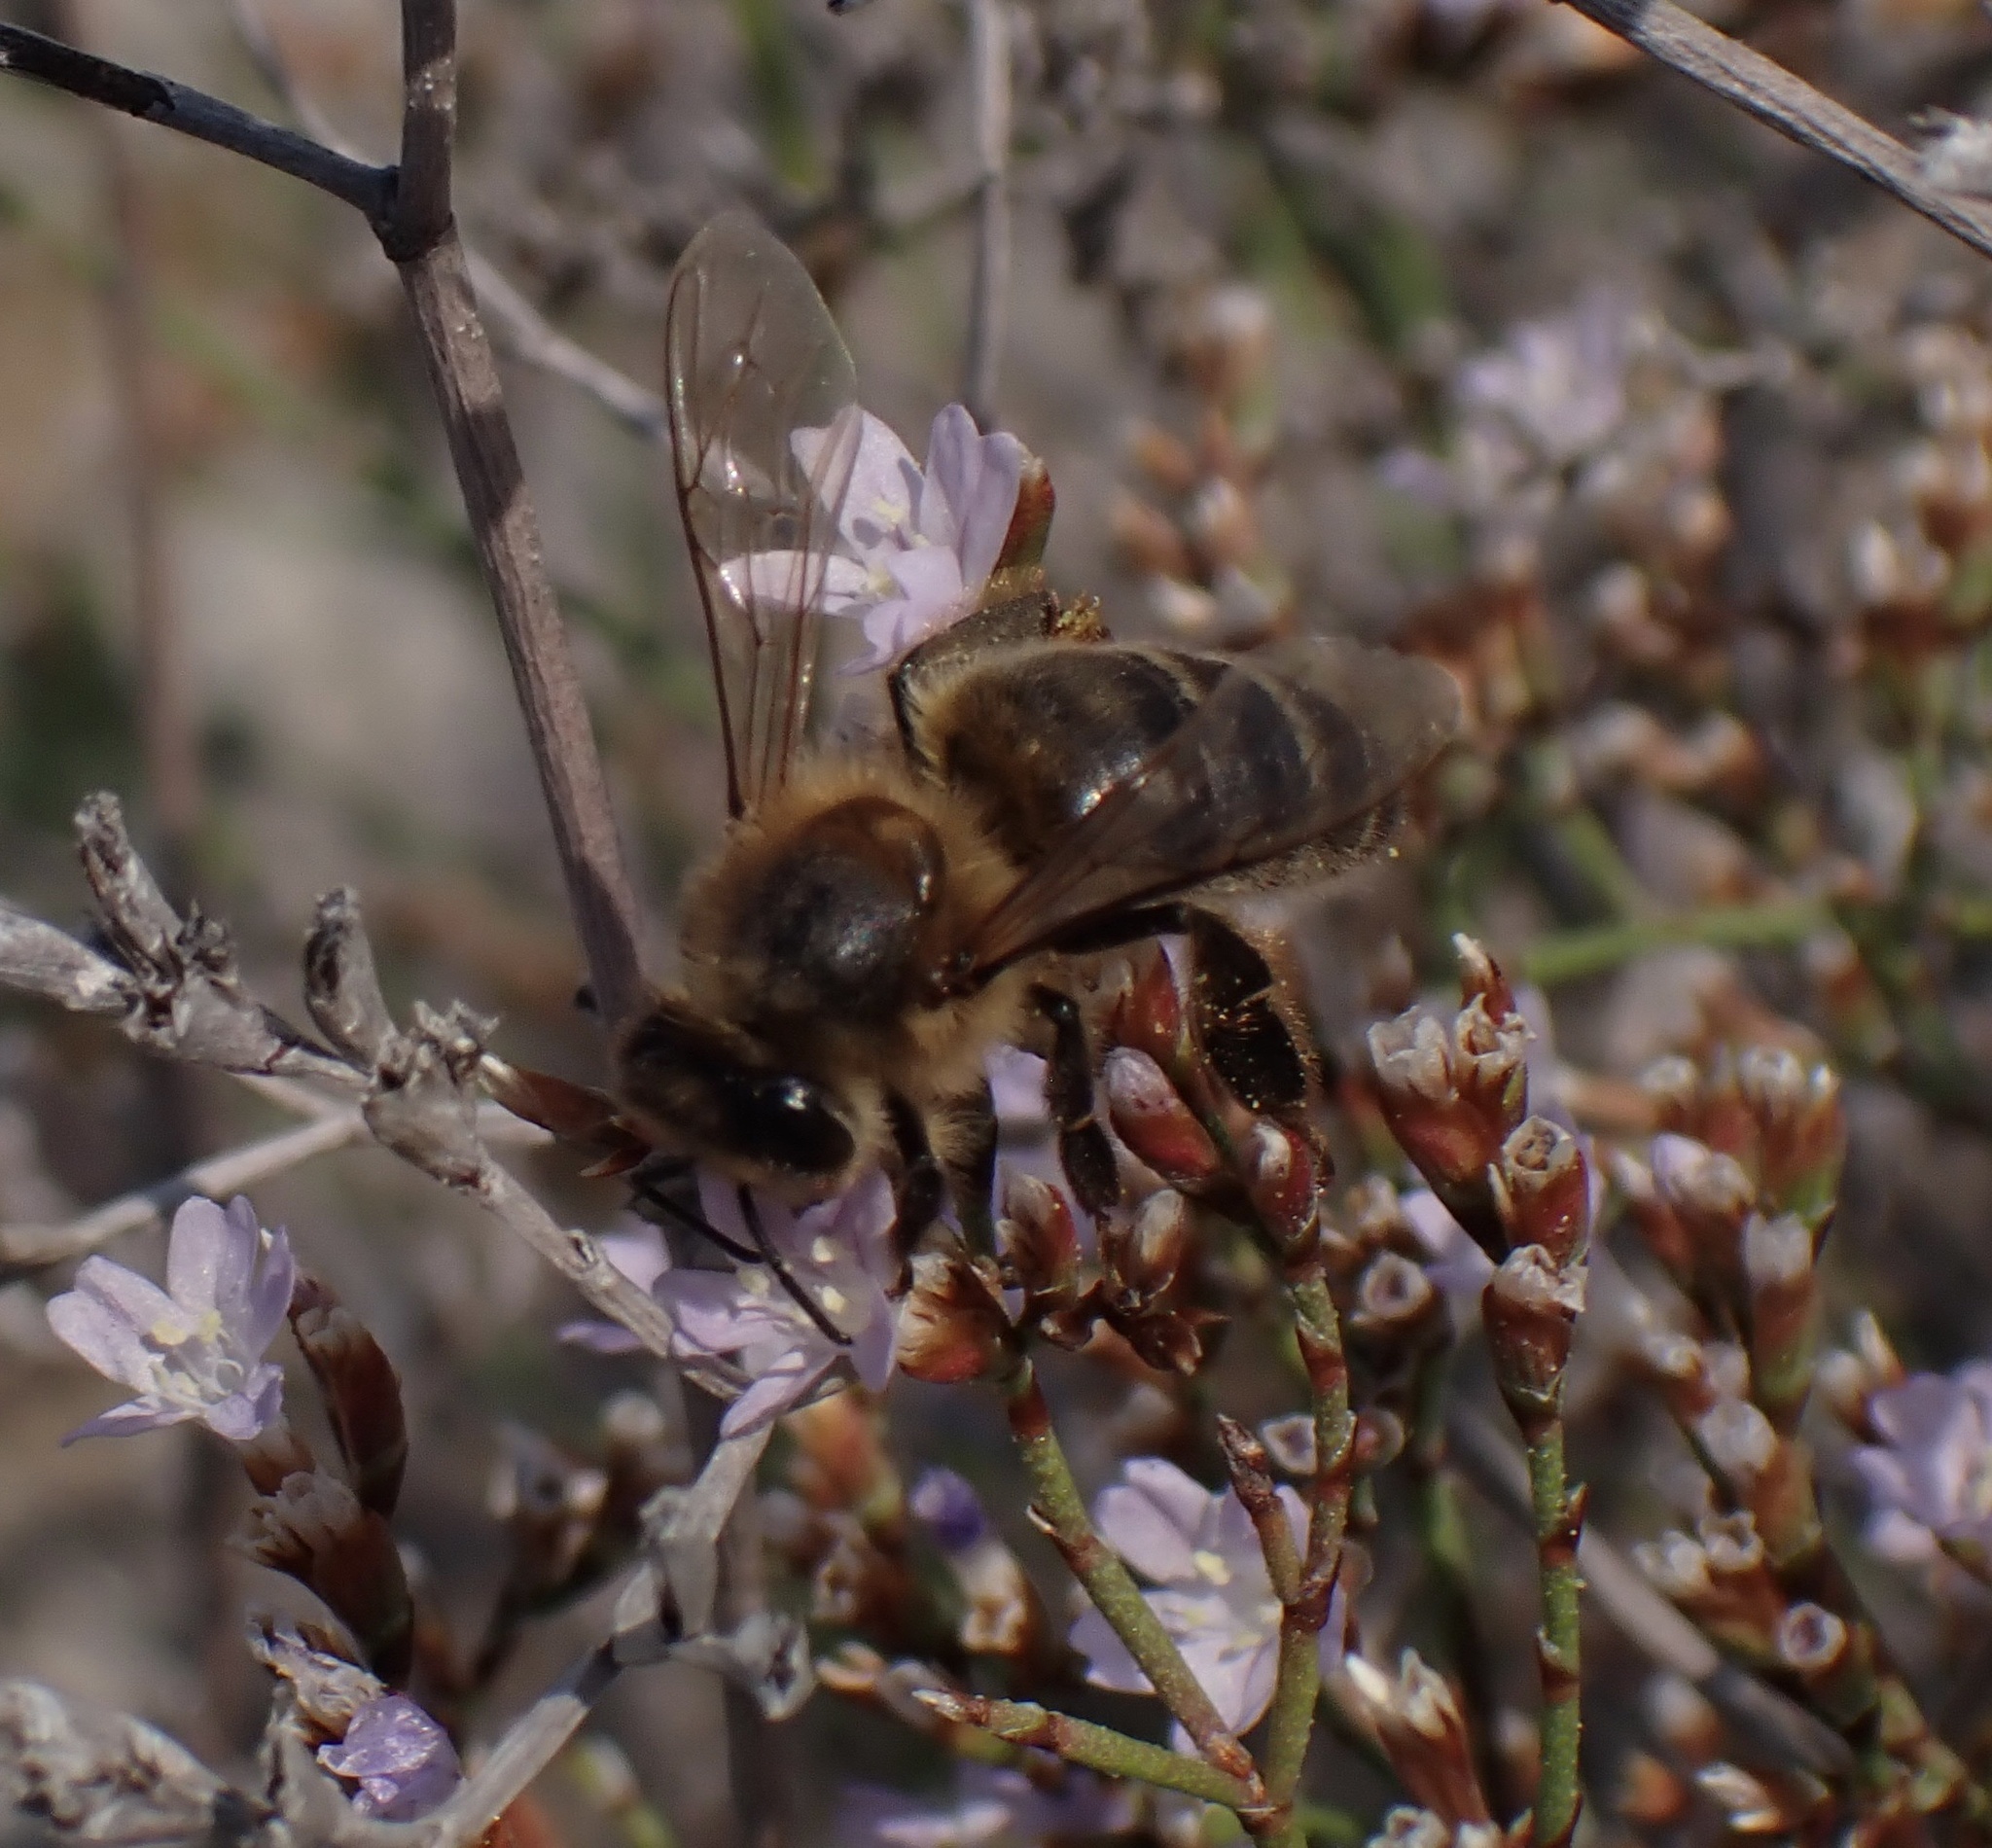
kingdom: Animalia
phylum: Arthropoda
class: Insecta
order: Hymenoptera
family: Apidae
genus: Apis
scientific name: Apis mellifera
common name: Honey bee
